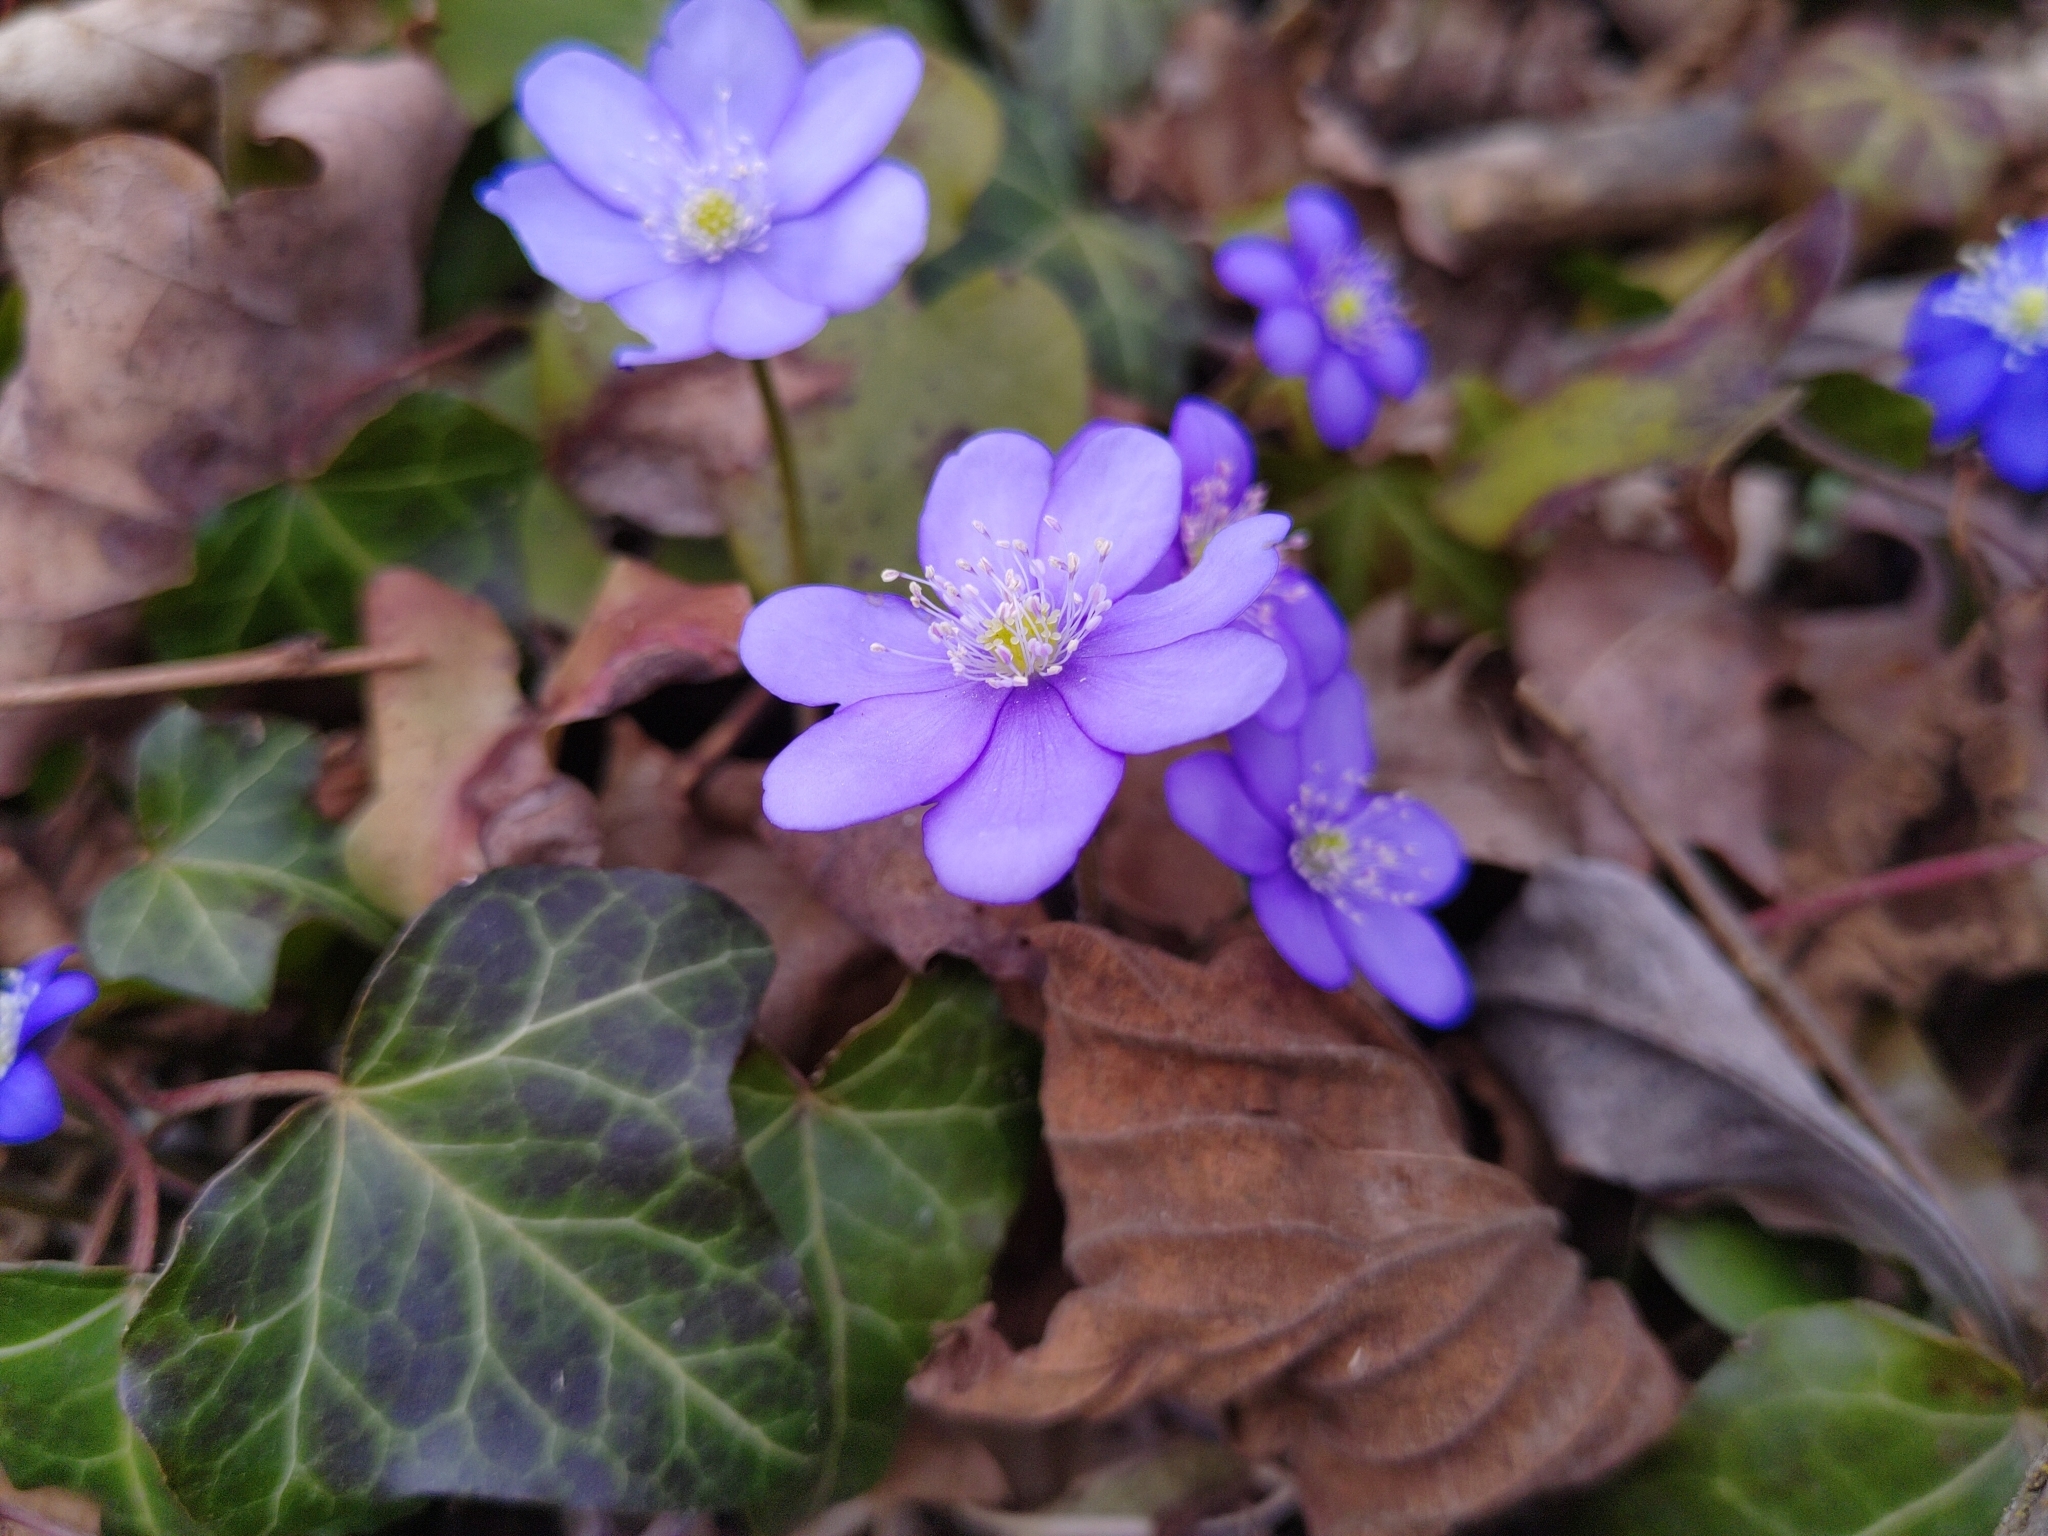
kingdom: Plantae
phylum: Tracheophyta
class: Magnoliopsida
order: Ranunculales
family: Ranunculaceae
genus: Hepatica
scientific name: Hepatica nobilis
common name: Liverleaf
